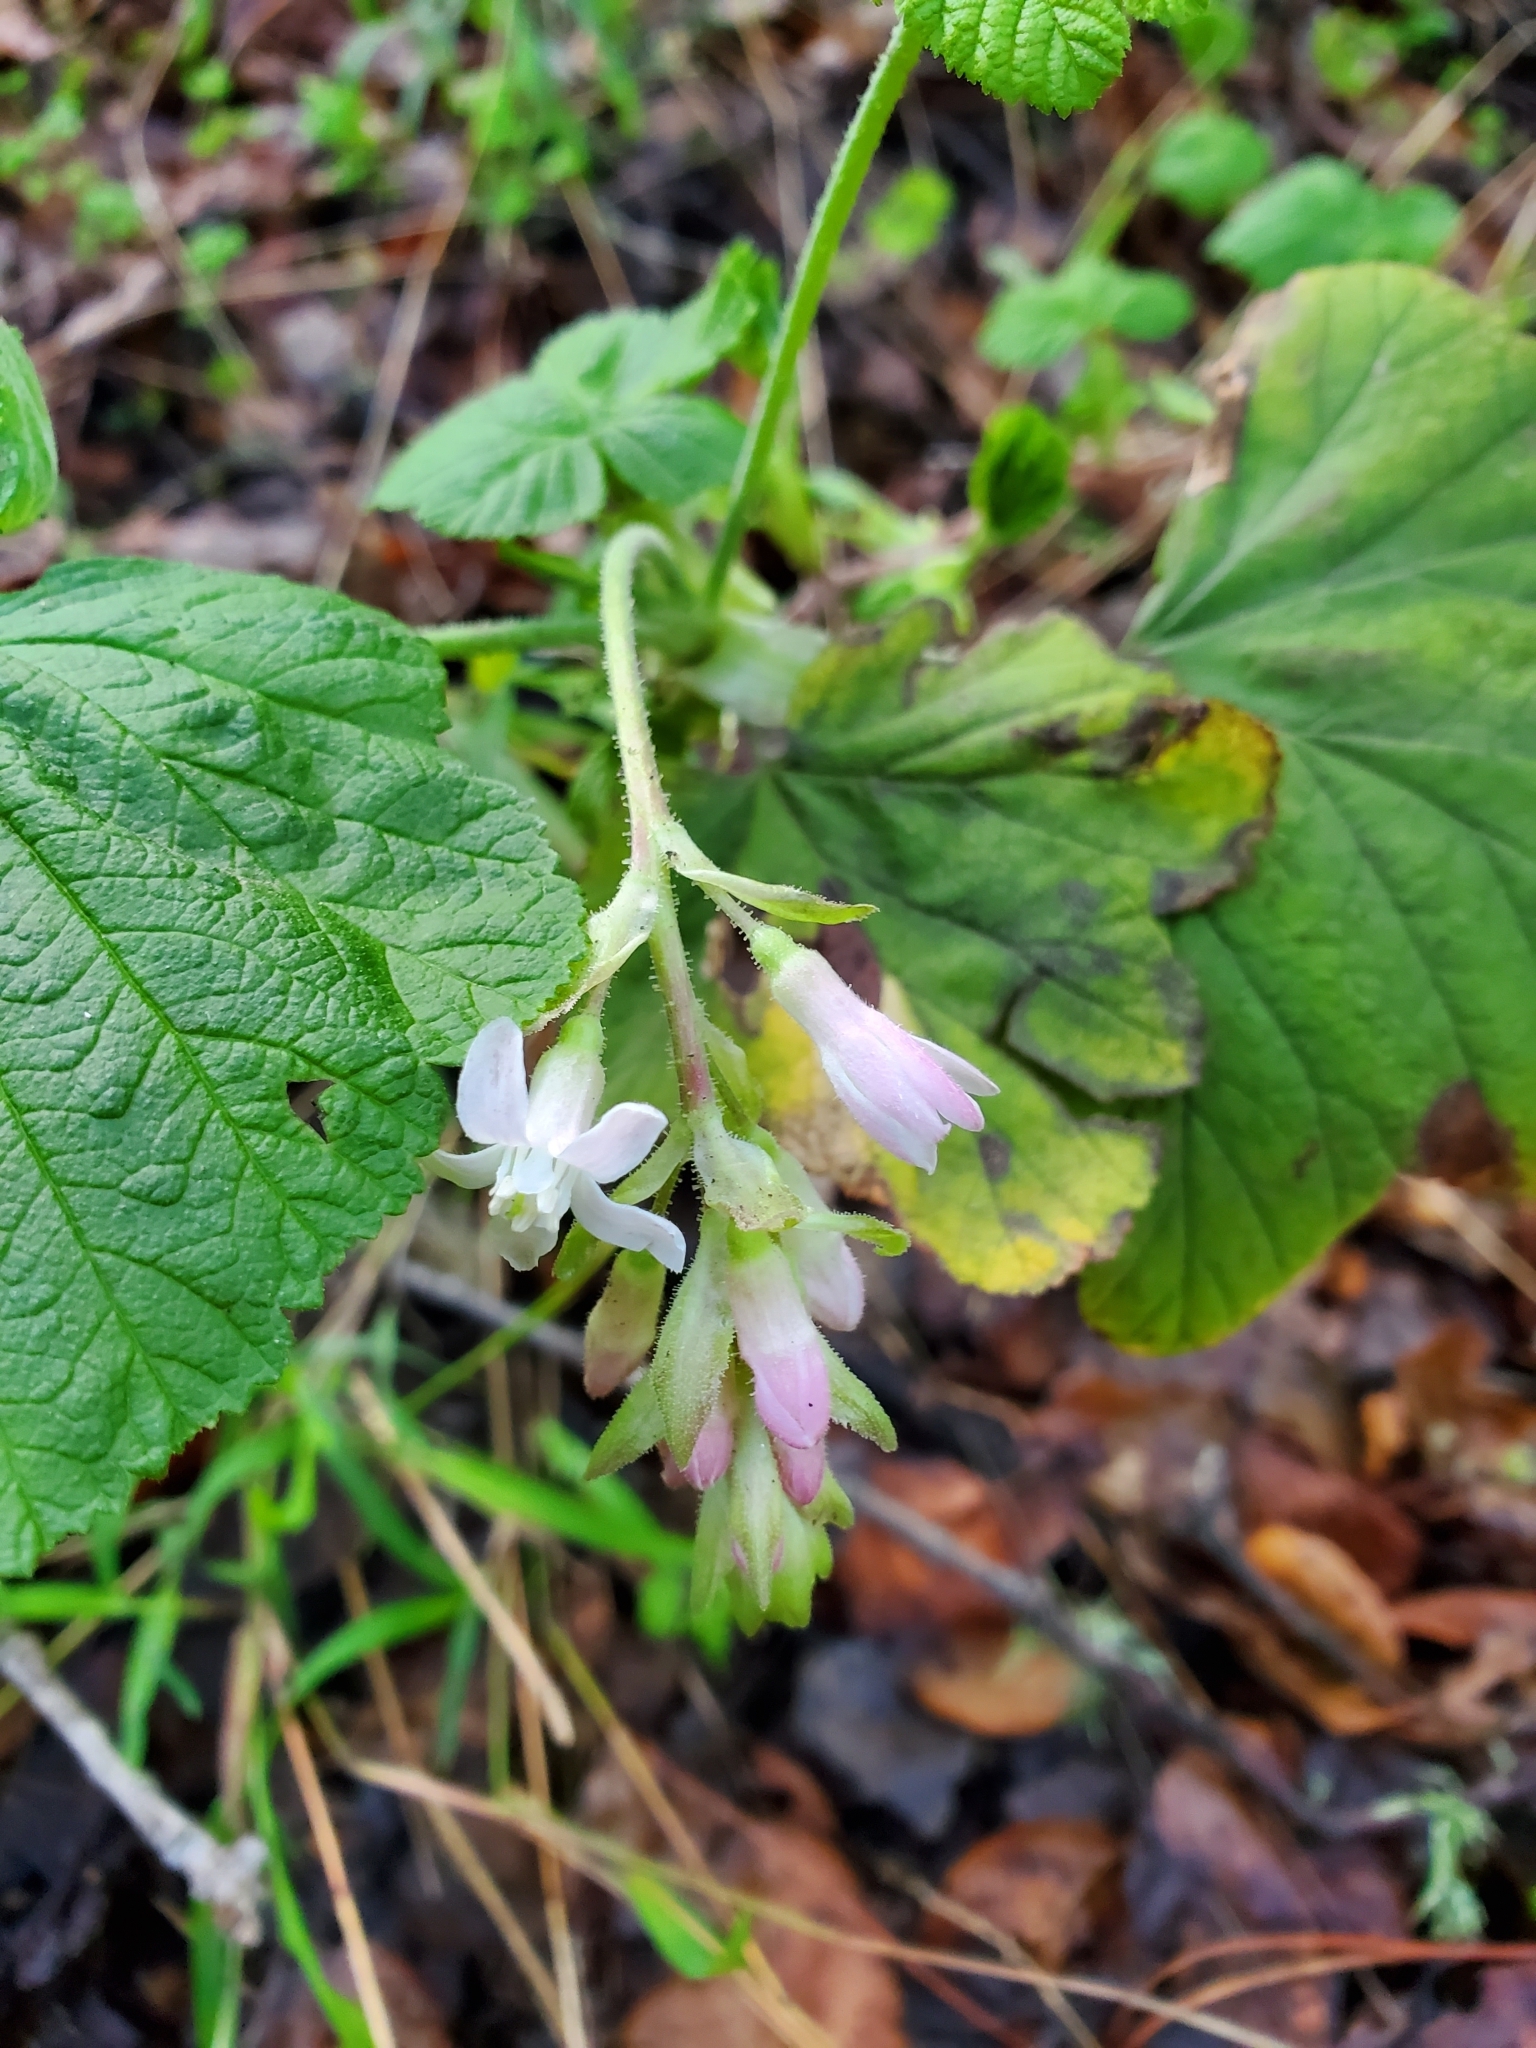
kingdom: Plantae
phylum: Tracheophyta
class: Magnoliopsida
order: Saxifragales
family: Grossulariaceae
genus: Ribes
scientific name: Ribes sanguineum
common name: Flowering currant
